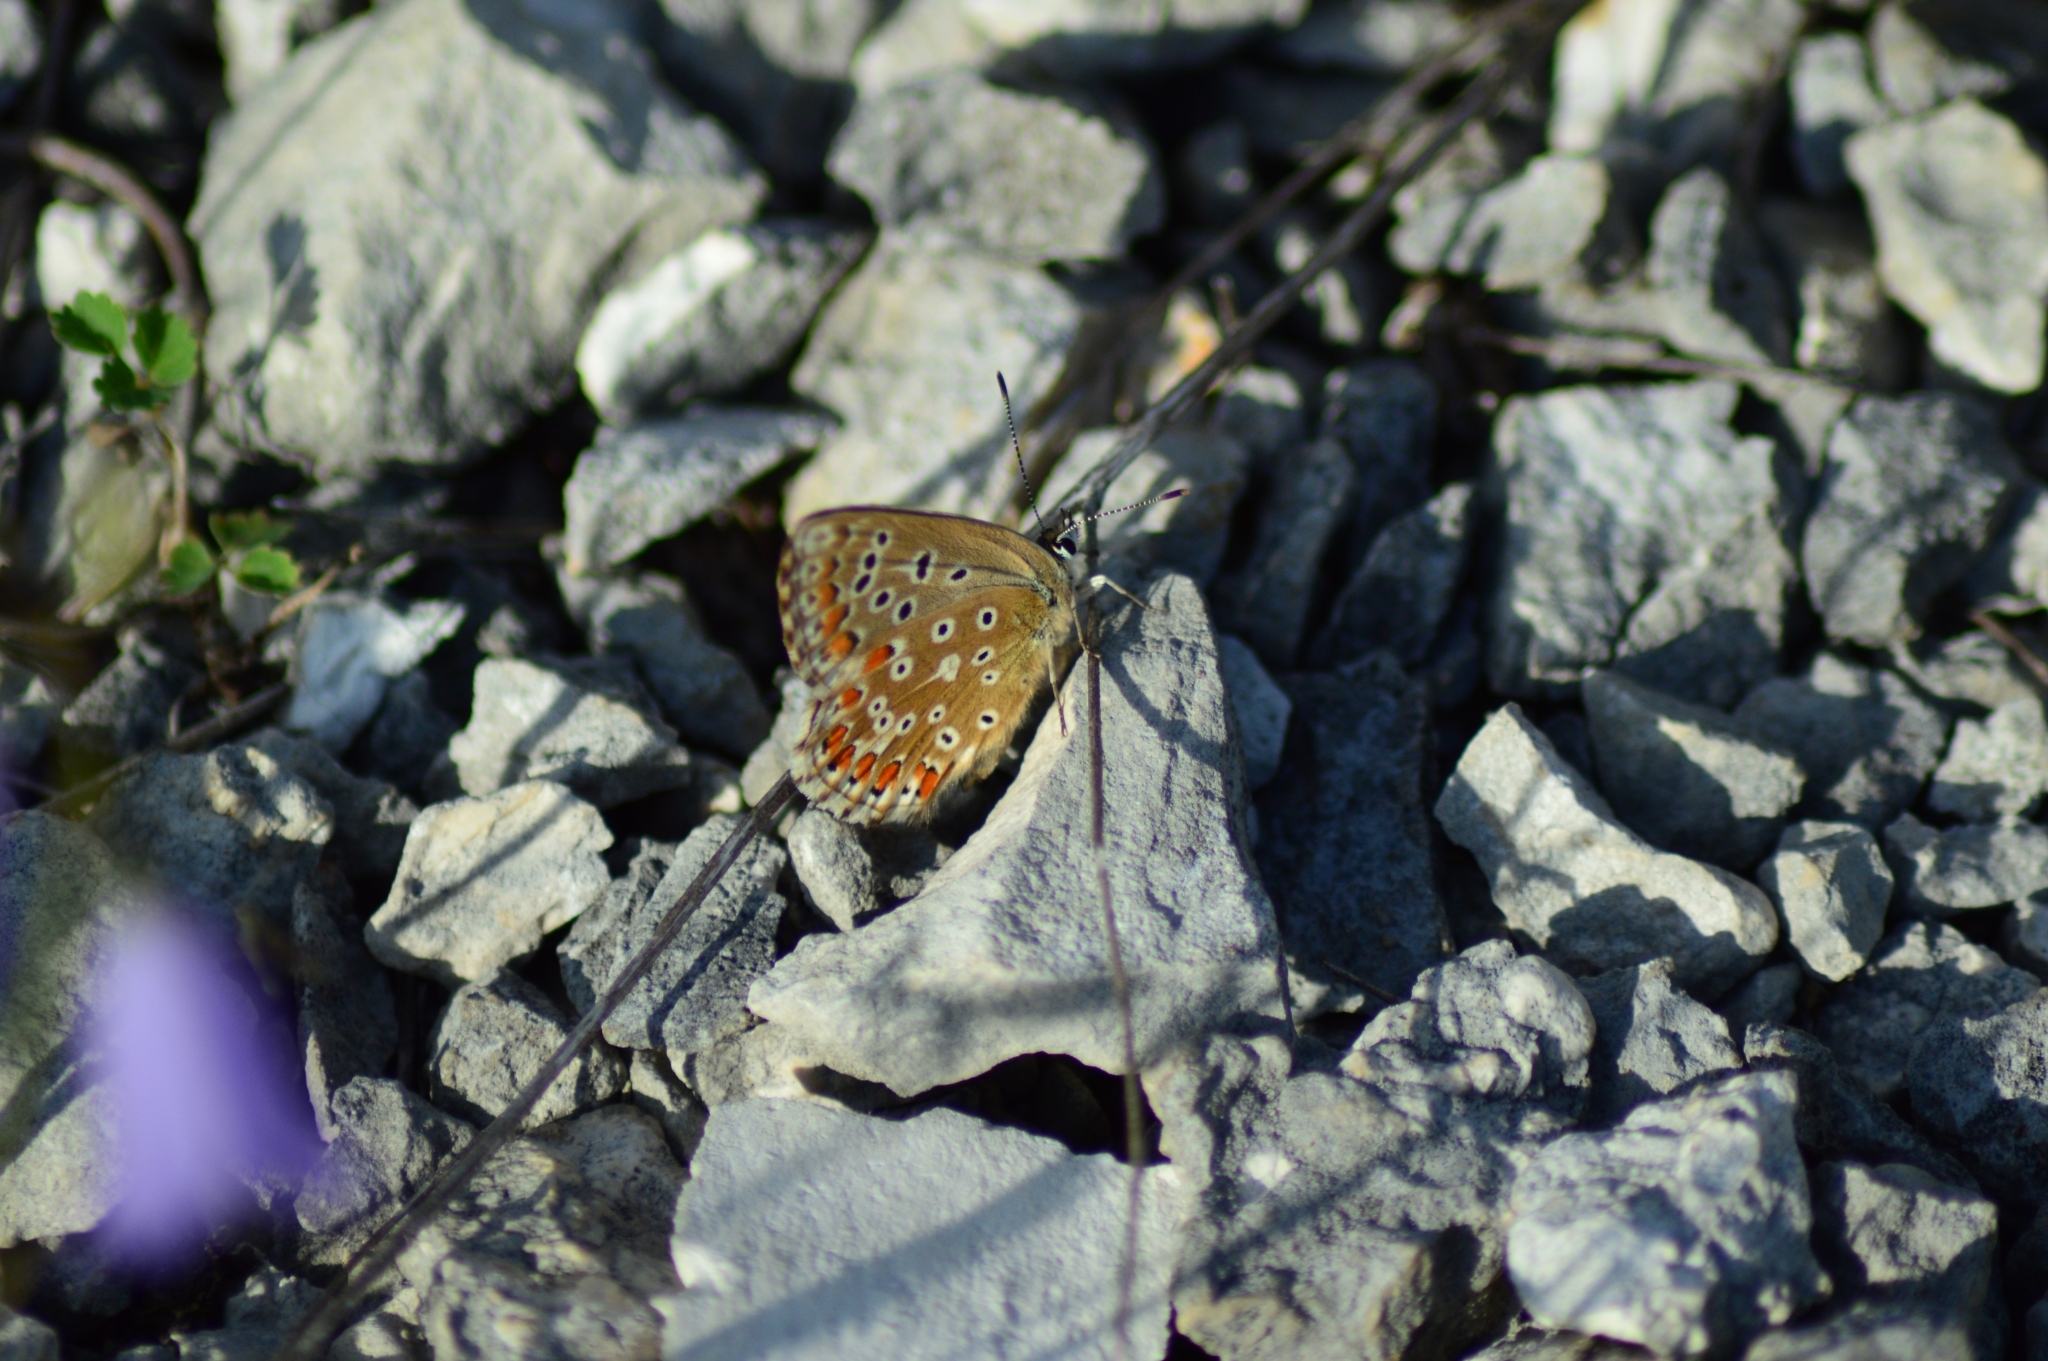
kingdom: Animalia
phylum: Arthropoda
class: Insecta
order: Lepidoptera
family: Lycaenidae
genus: Lysandra
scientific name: Lysandra bellargus
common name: Adonis blue
